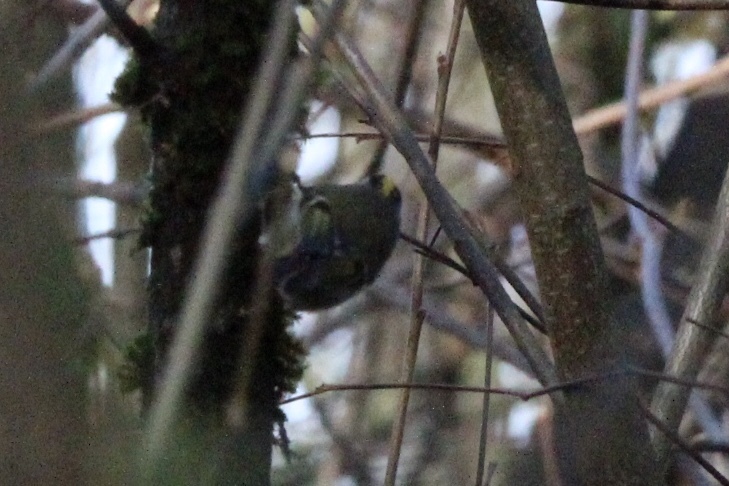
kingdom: Animalia
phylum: Chordata
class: Aves
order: Passeriformes
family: Regulidae
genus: Regulus
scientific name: Regulus satrapa
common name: Golden-crowned kinglet
